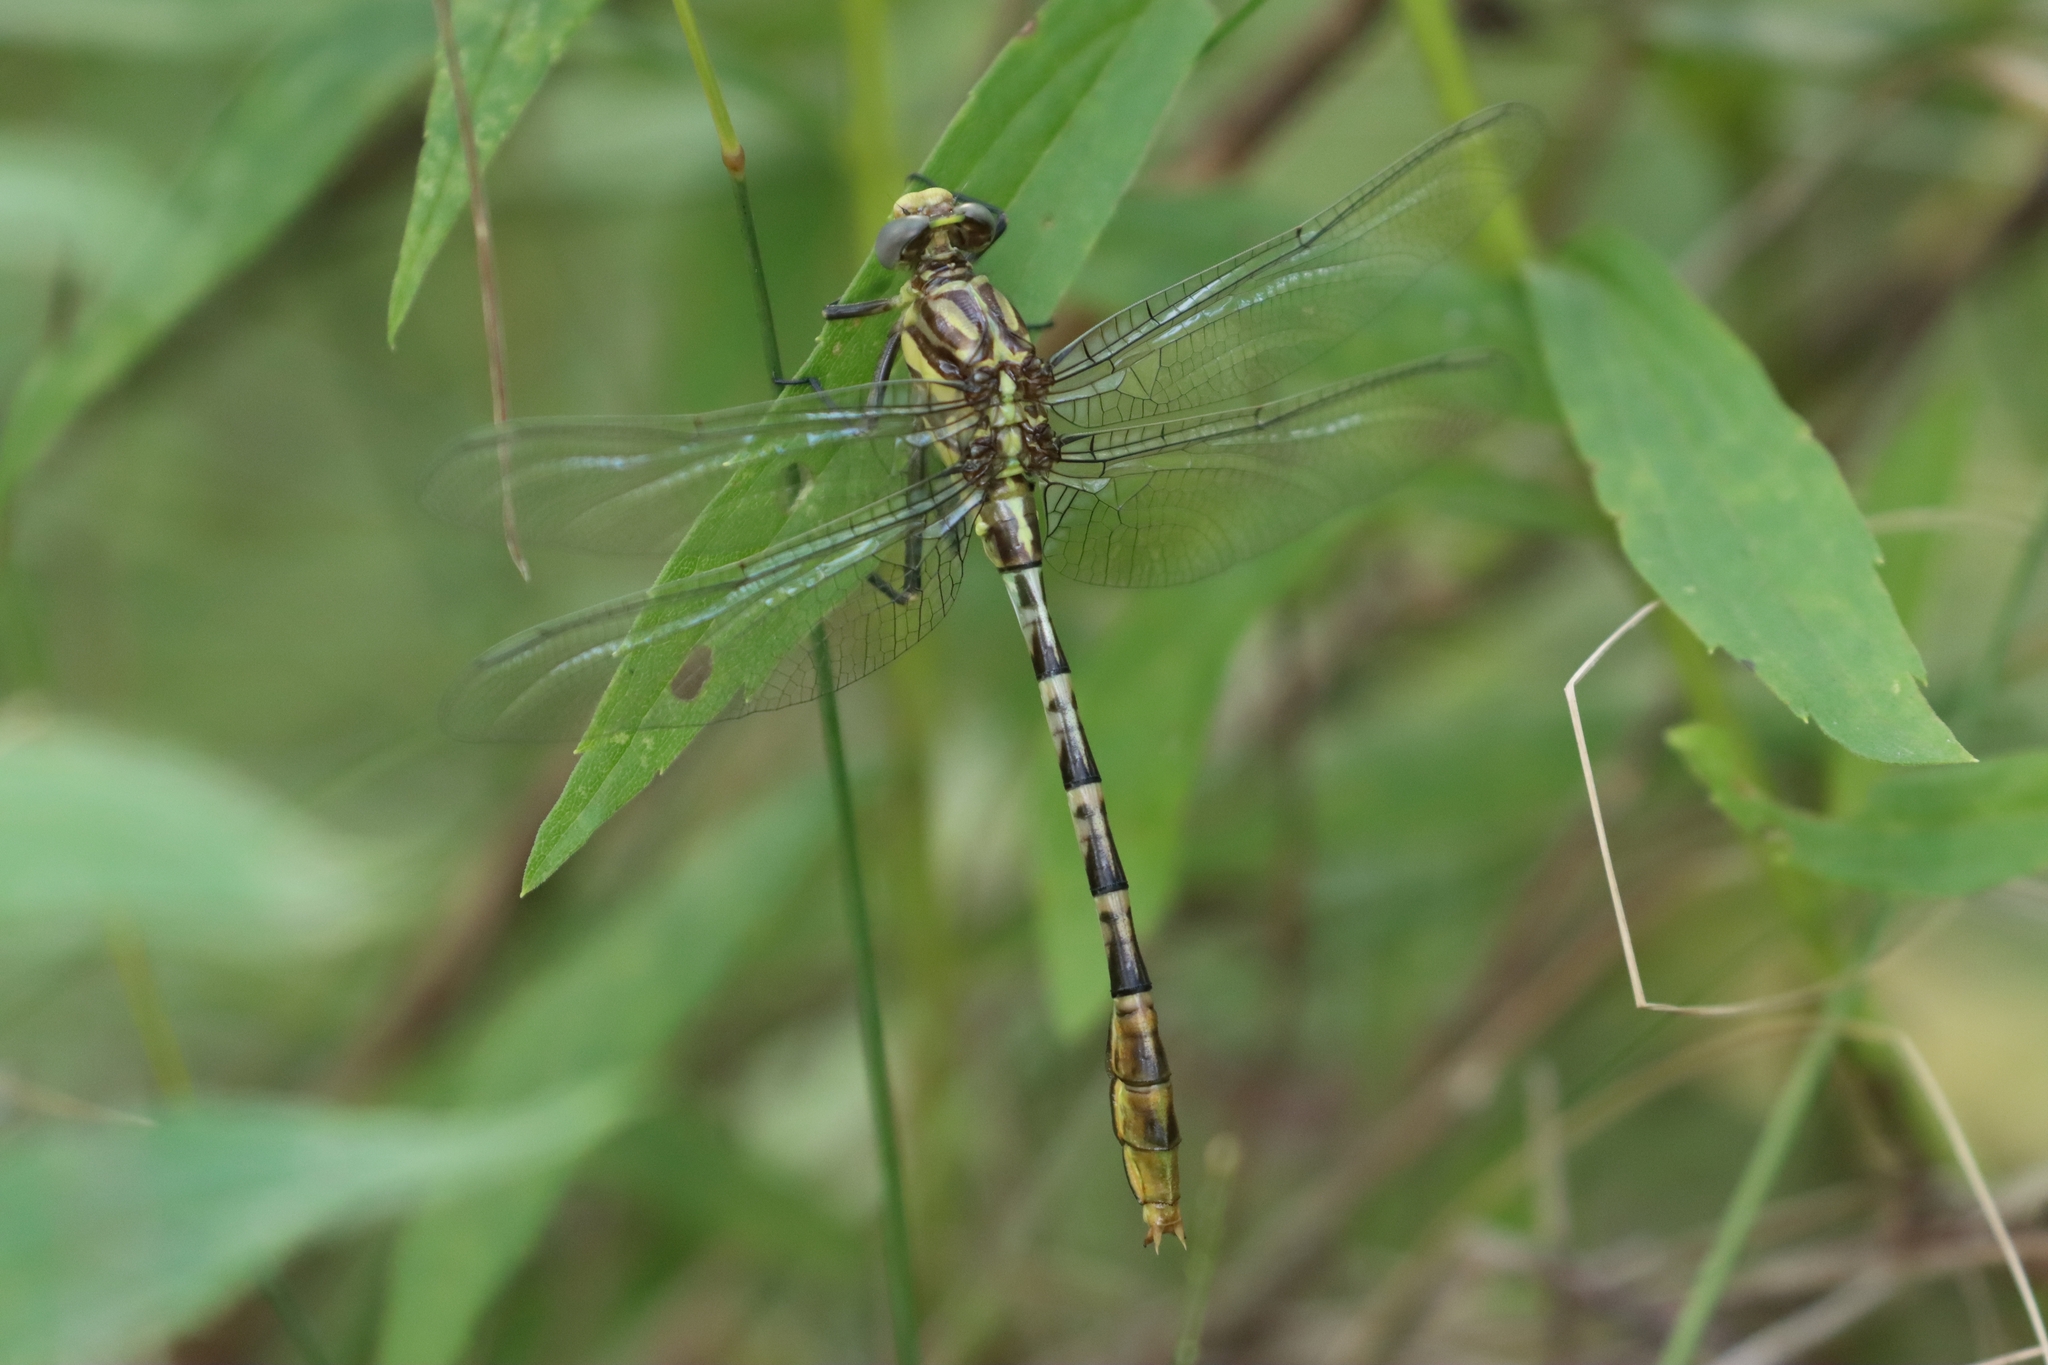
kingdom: Animalia
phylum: Arthropoda
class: Insecta
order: Odonata
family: Gomphidae
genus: Dromogomphus
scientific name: Dromogomphus spoliatus
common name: Flag-tailed spinyleg
